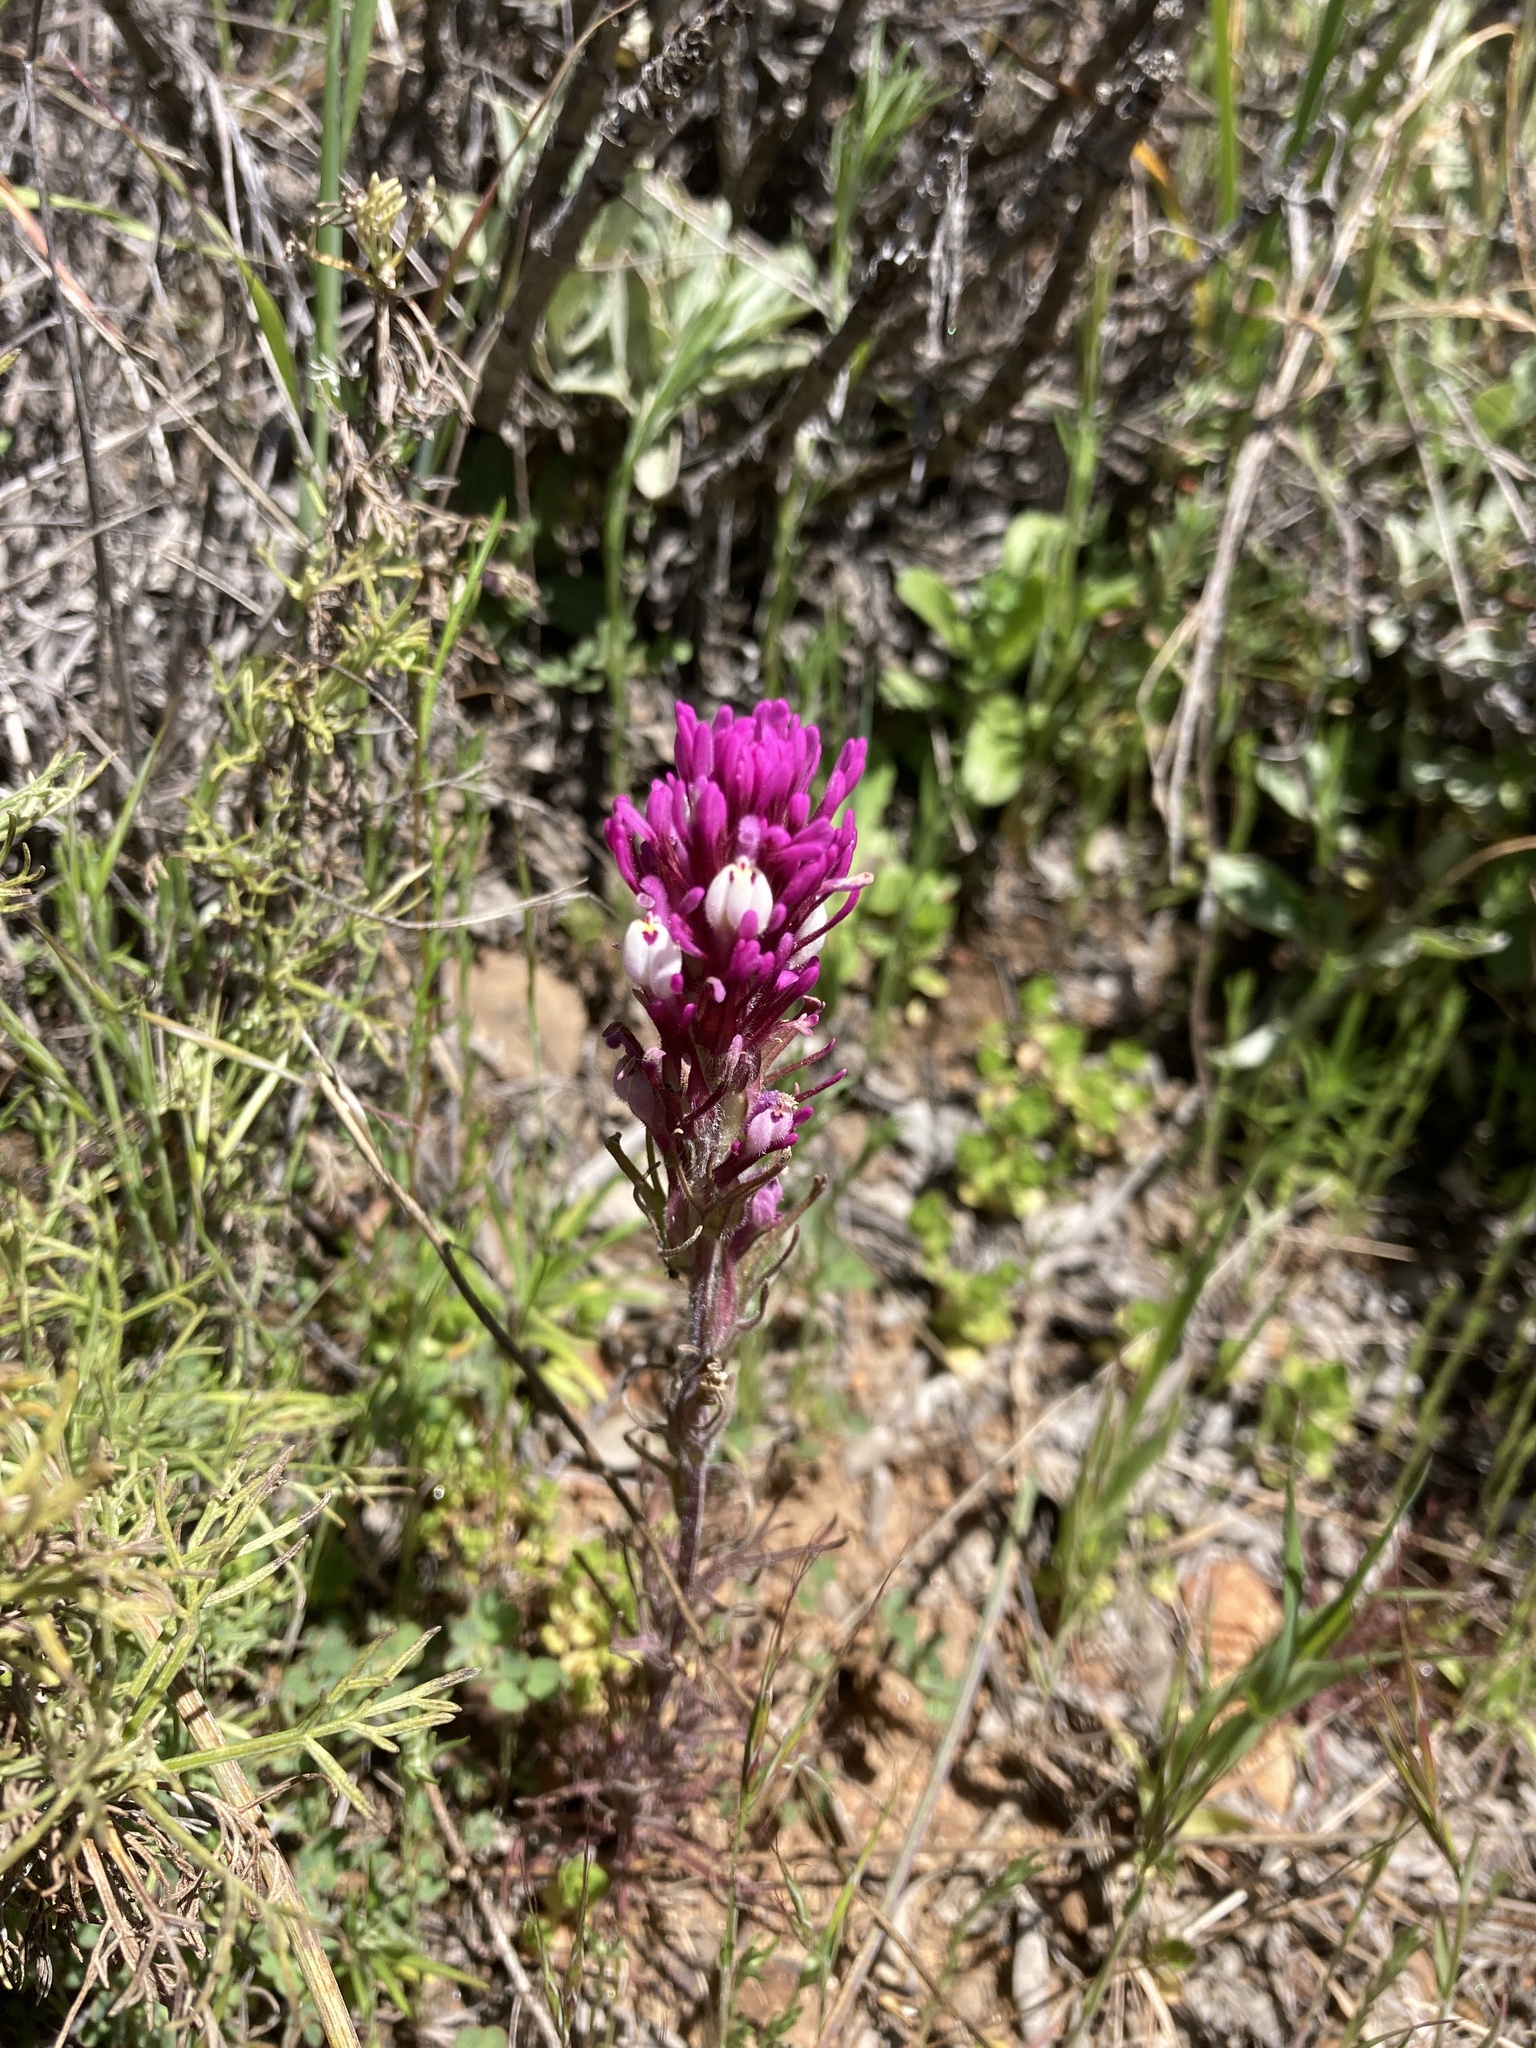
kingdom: Plantae
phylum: Tracheophyta
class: Magnoliopsida
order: Lamiales
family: Orobanchaceae
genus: Castilleja
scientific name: Castilleja exserta
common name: Purple owl-clover
